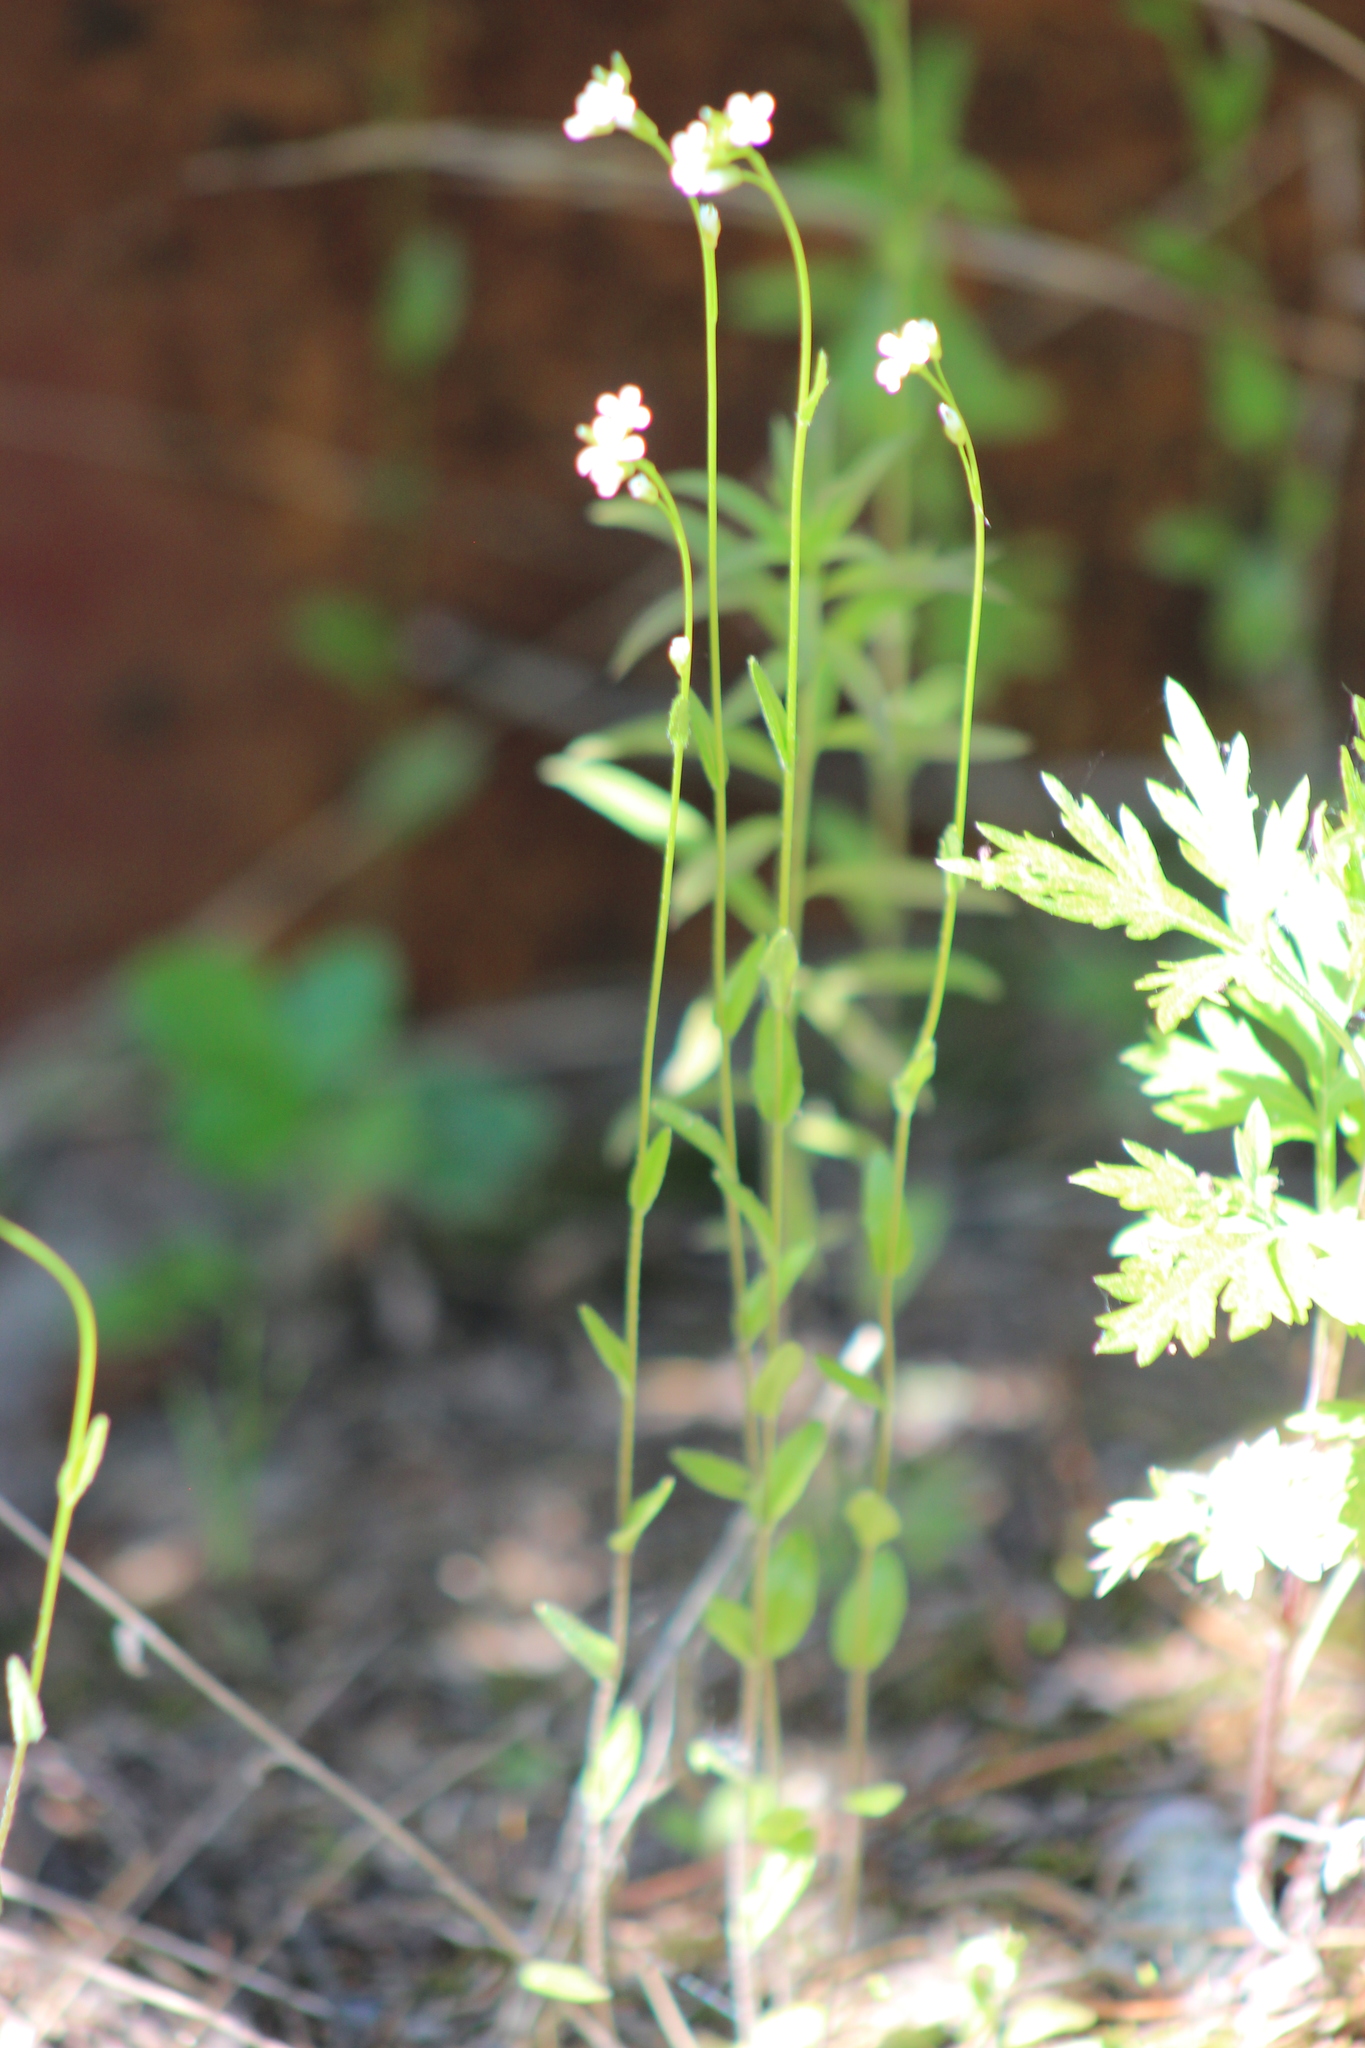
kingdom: Plantae
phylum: Tracheophyta
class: Magnoliopsida
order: Brassicales
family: Brassicaceae
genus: Turritis
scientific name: Turritis glabra
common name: Tower rockcress
